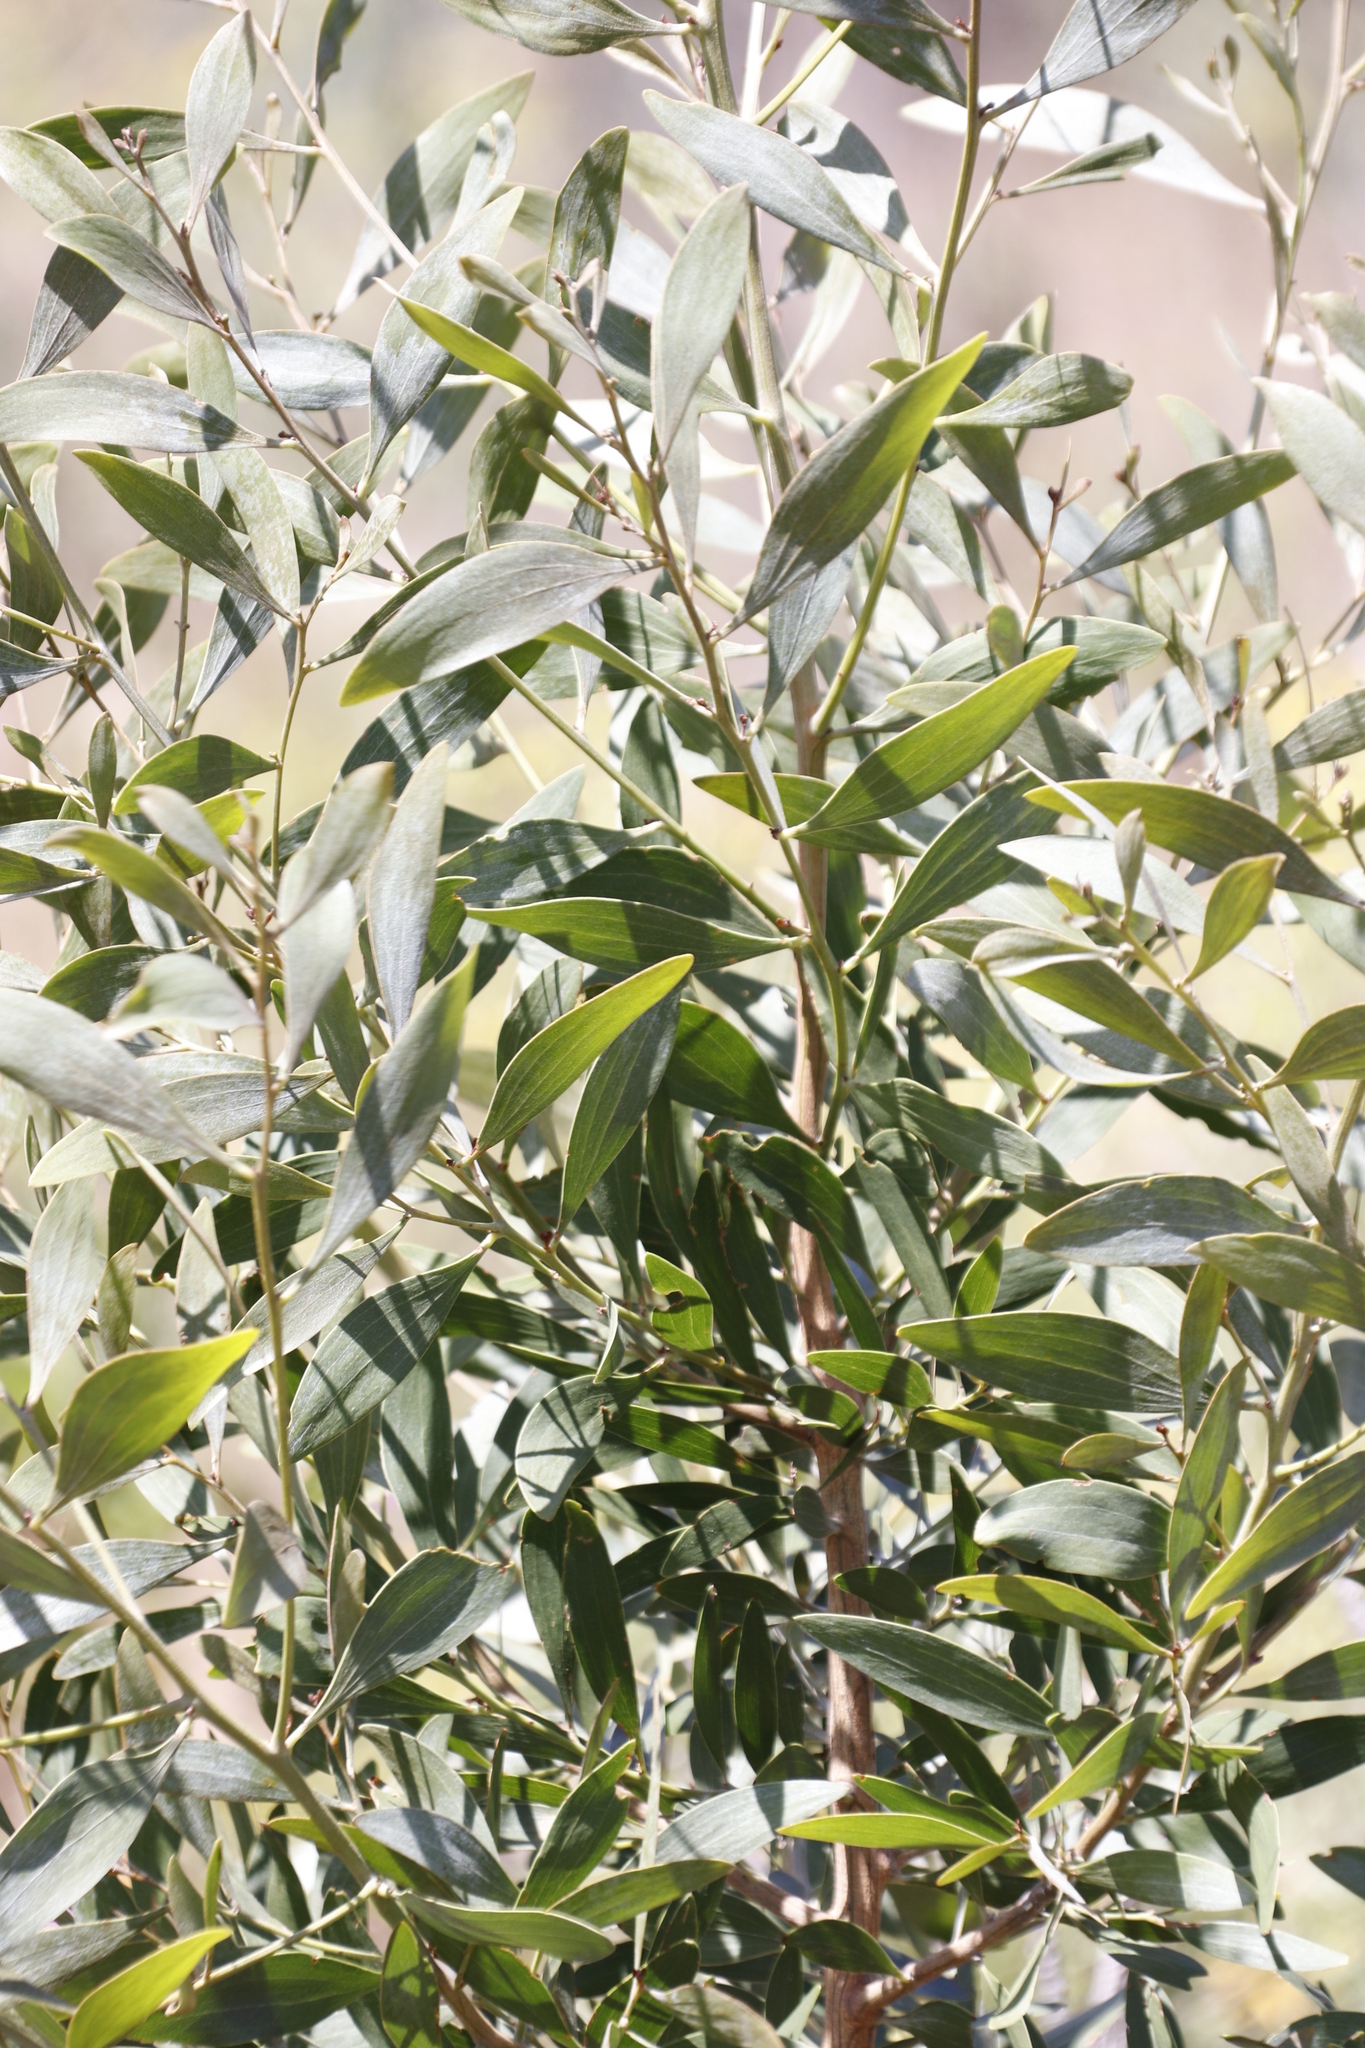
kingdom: Plantae
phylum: Tracheophyta
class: Magnoliopsida
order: Fabales
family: Fabaceae
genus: Acacia
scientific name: Acacia implexa
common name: Black wattle
